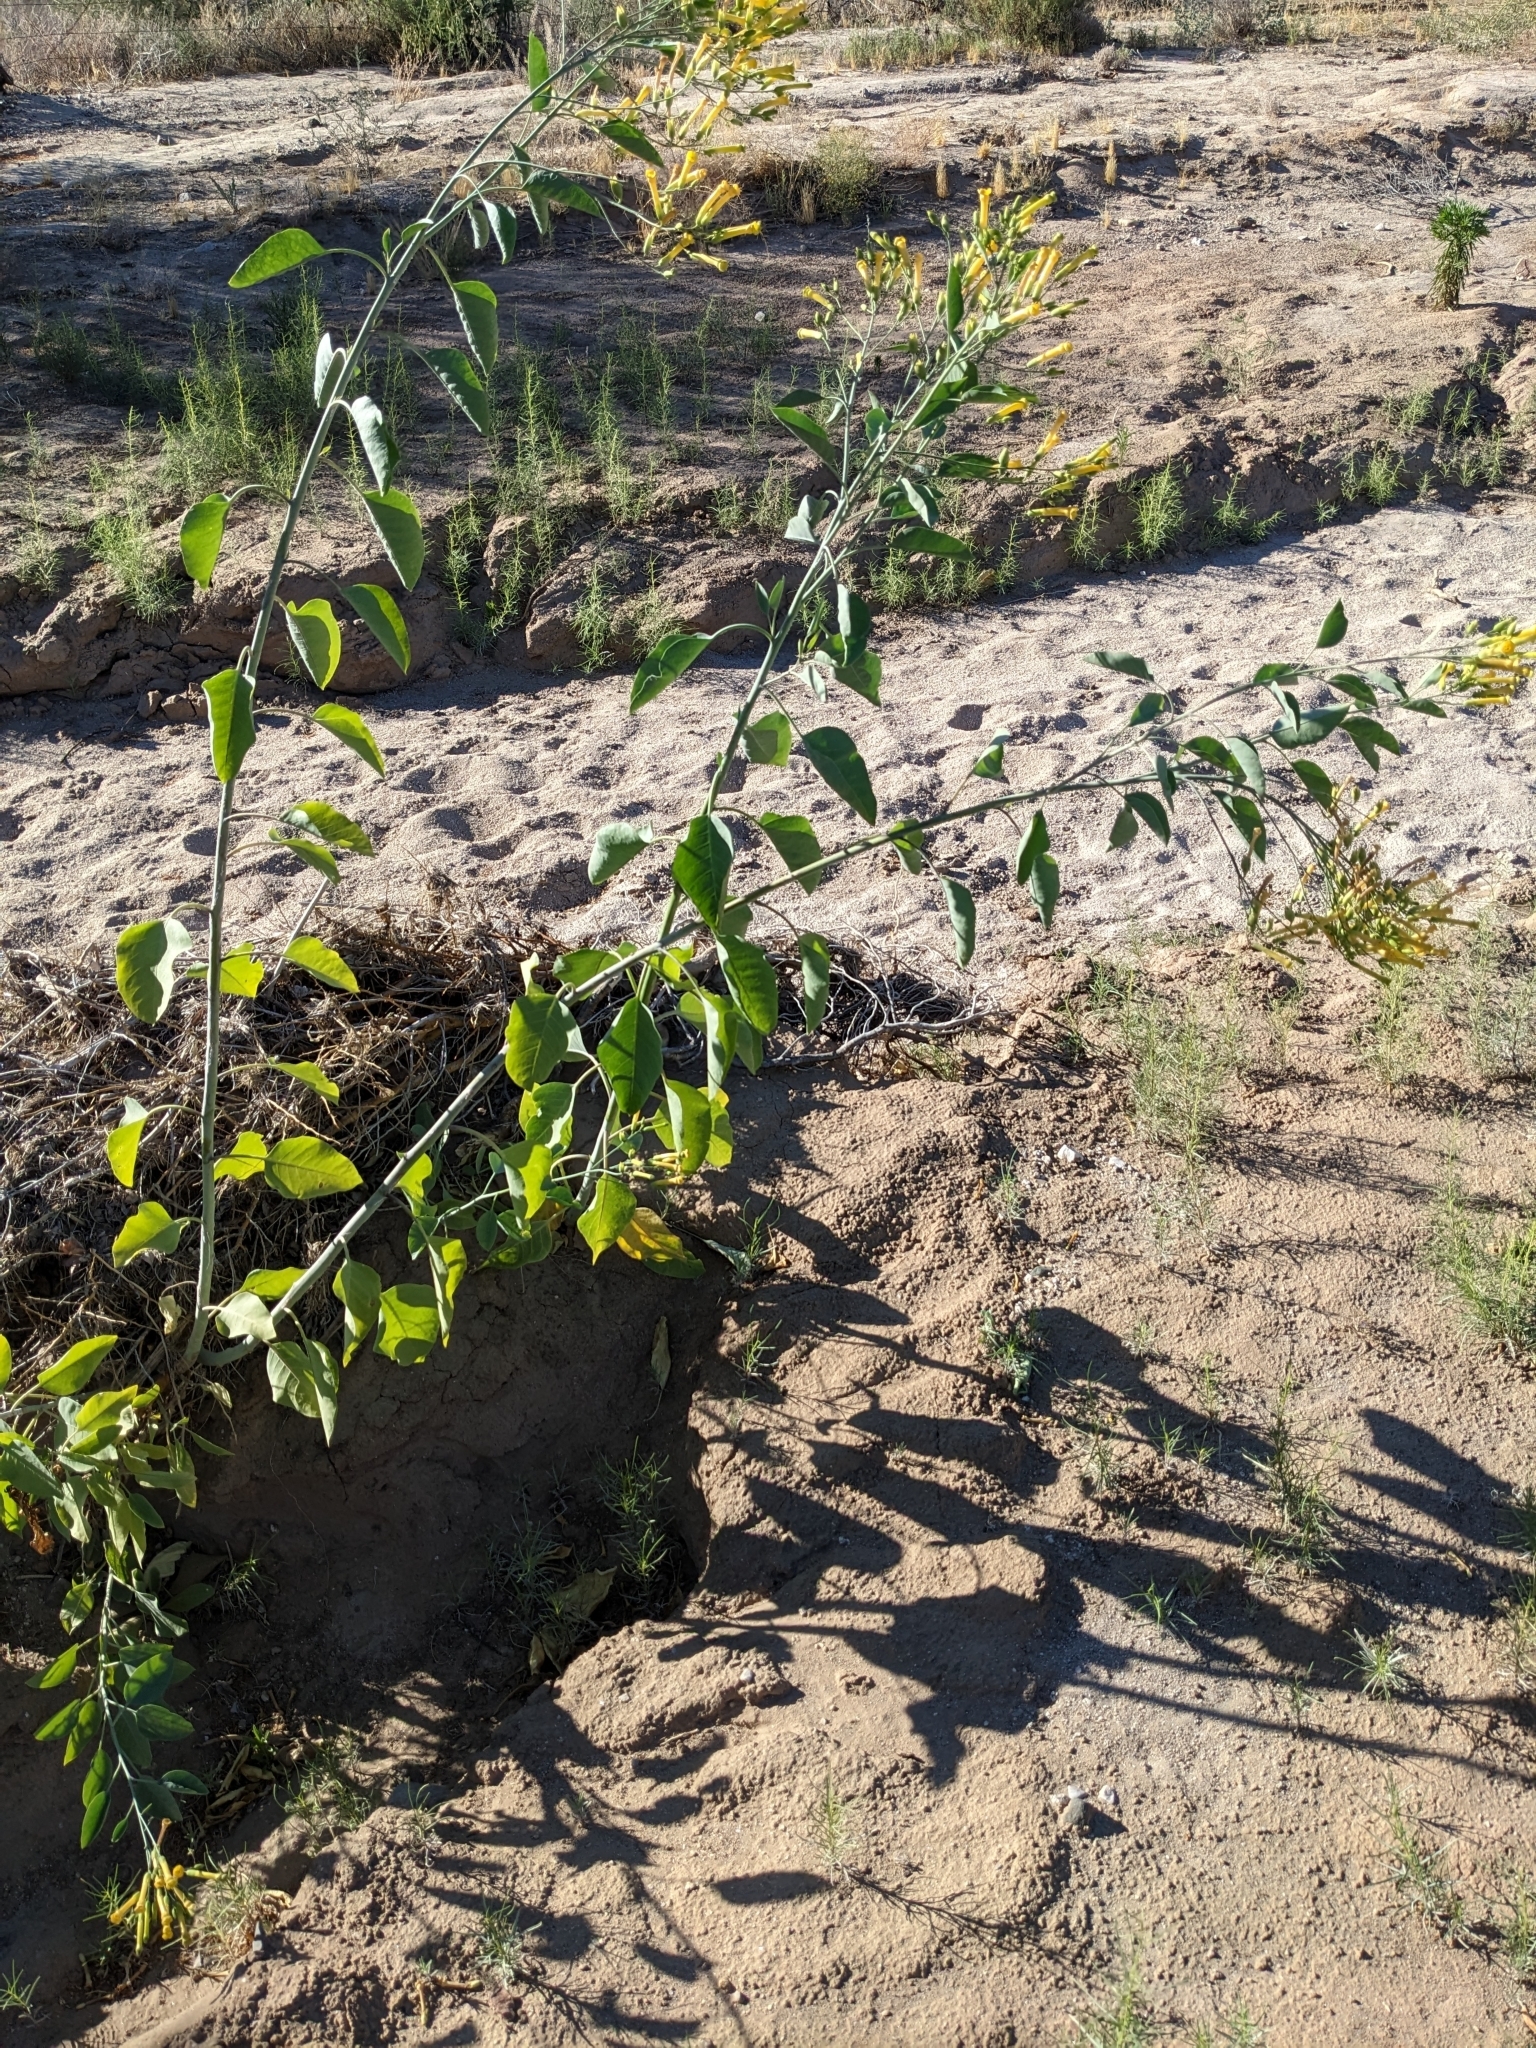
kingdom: Plantae
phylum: Tracheophyta
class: Magnoliopsida
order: Solanales
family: Solanaceae
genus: Nicotiana
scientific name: Nicotiana glauca
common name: Tree tobacco
